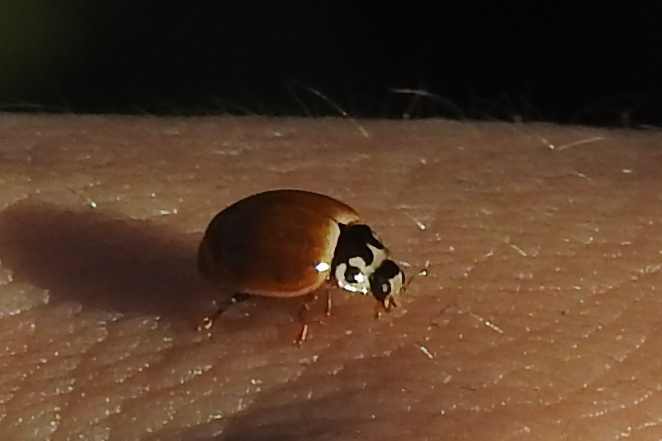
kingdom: Animalia
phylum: Arthropoda
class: Insecta
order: Coleoptera
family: Coccinellidae
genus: Cycloneda
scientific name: Cycloneda munda
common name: Polished lady beetle
